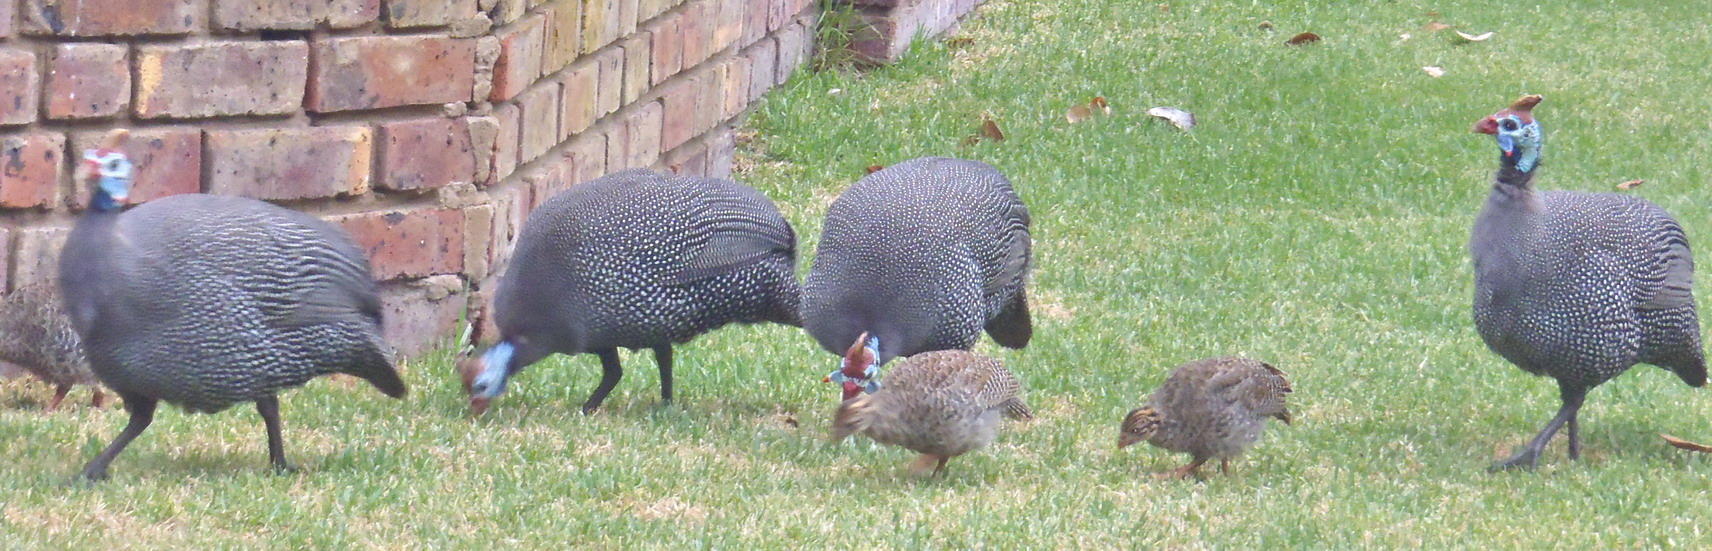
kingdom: Animalia
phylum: Chordata
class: Aves
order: Galliformes
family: Numididae
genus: Numida
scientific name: Numida meleagris
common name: Helmeted guineafowl
